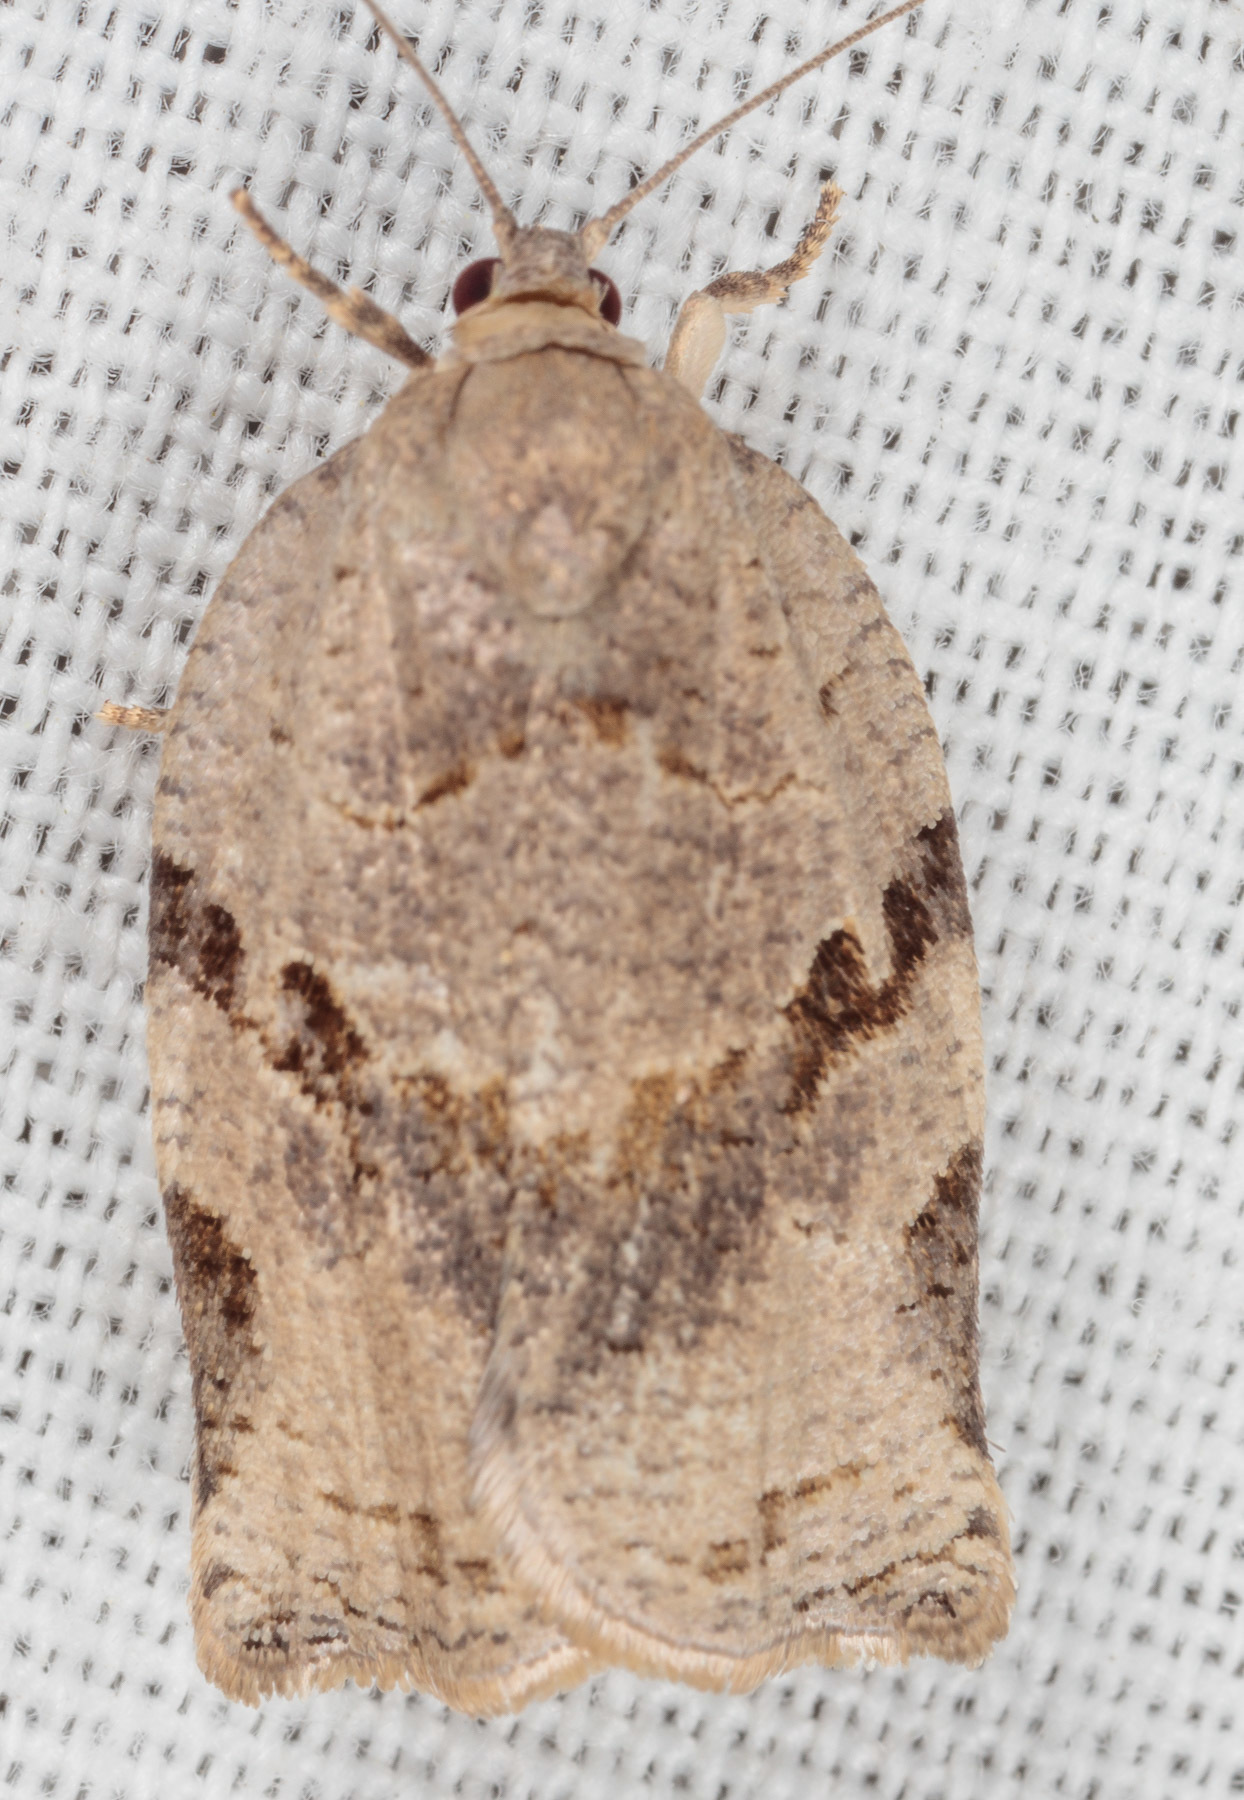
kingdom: Animalia
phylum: Arthropoda
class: Insecta
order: Lepidoptera
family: Tortricidae
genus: Archips
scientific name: Archips grisea
